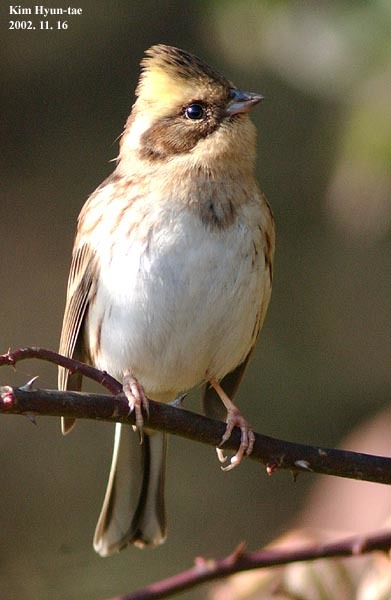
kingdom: Animalia
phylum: Chordata
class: Aves
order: Passeriformes
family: Emberizidae
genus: Emberiza
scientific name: Emberiza elegans
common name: Yellow-throated bunting
